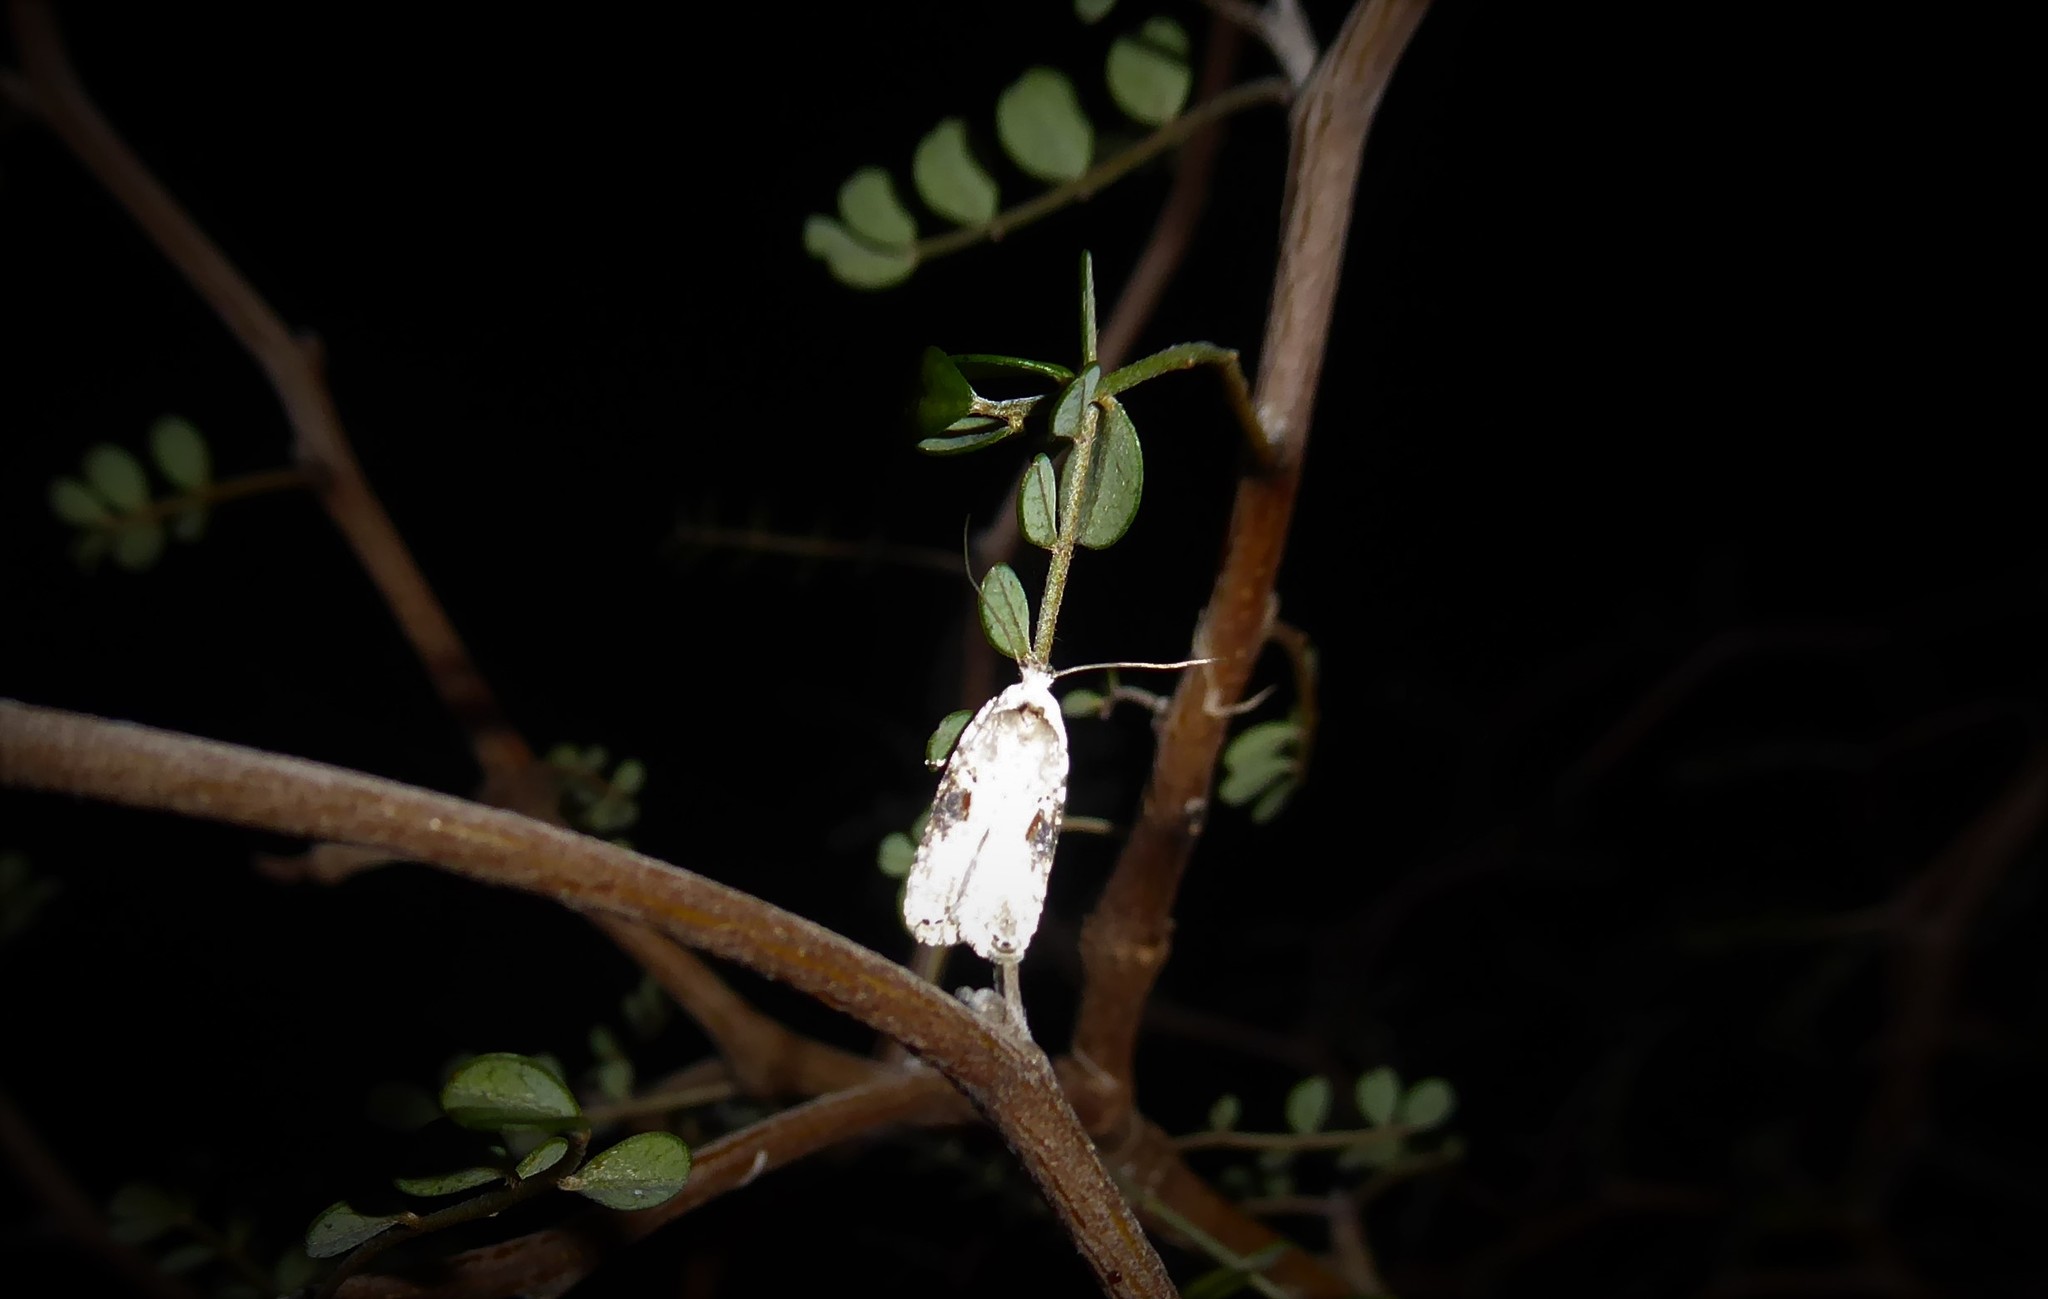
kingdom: Animalia
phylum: Arthropoda
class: Insecta
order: Lepidoptera
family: Depressariidae
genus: Agonopterix
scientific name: Agonopterix alstroemeriana
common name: Moth
